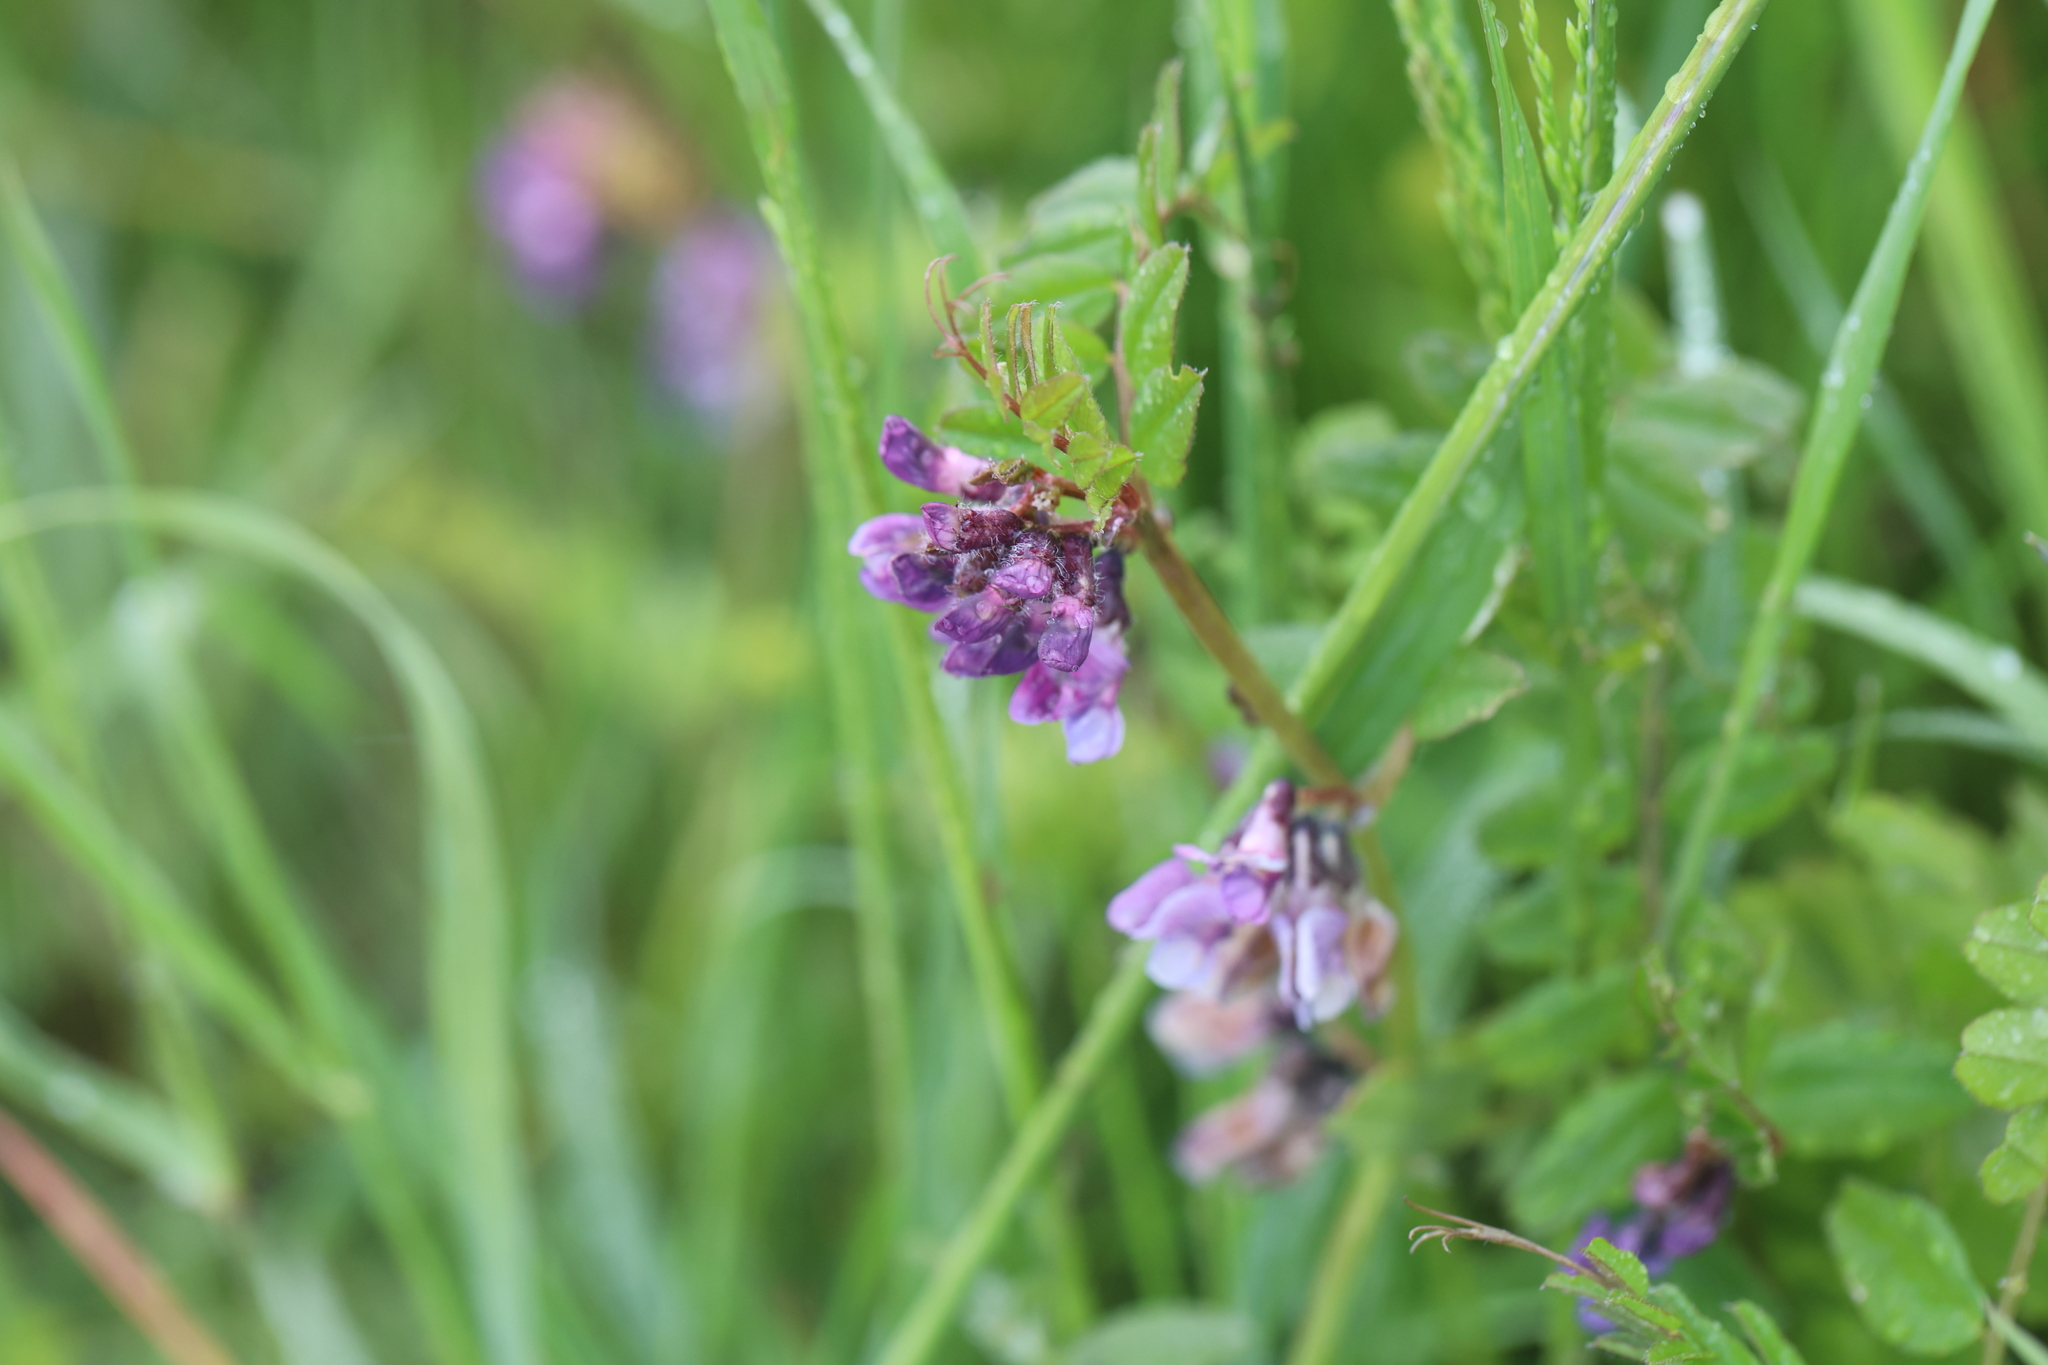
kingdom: Plantae
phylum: Tracheophyta
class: Magnoliopsida
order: Fabales
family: Fabaceae
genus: Vicia
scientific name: Vicia sepium
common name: Bush vetch
